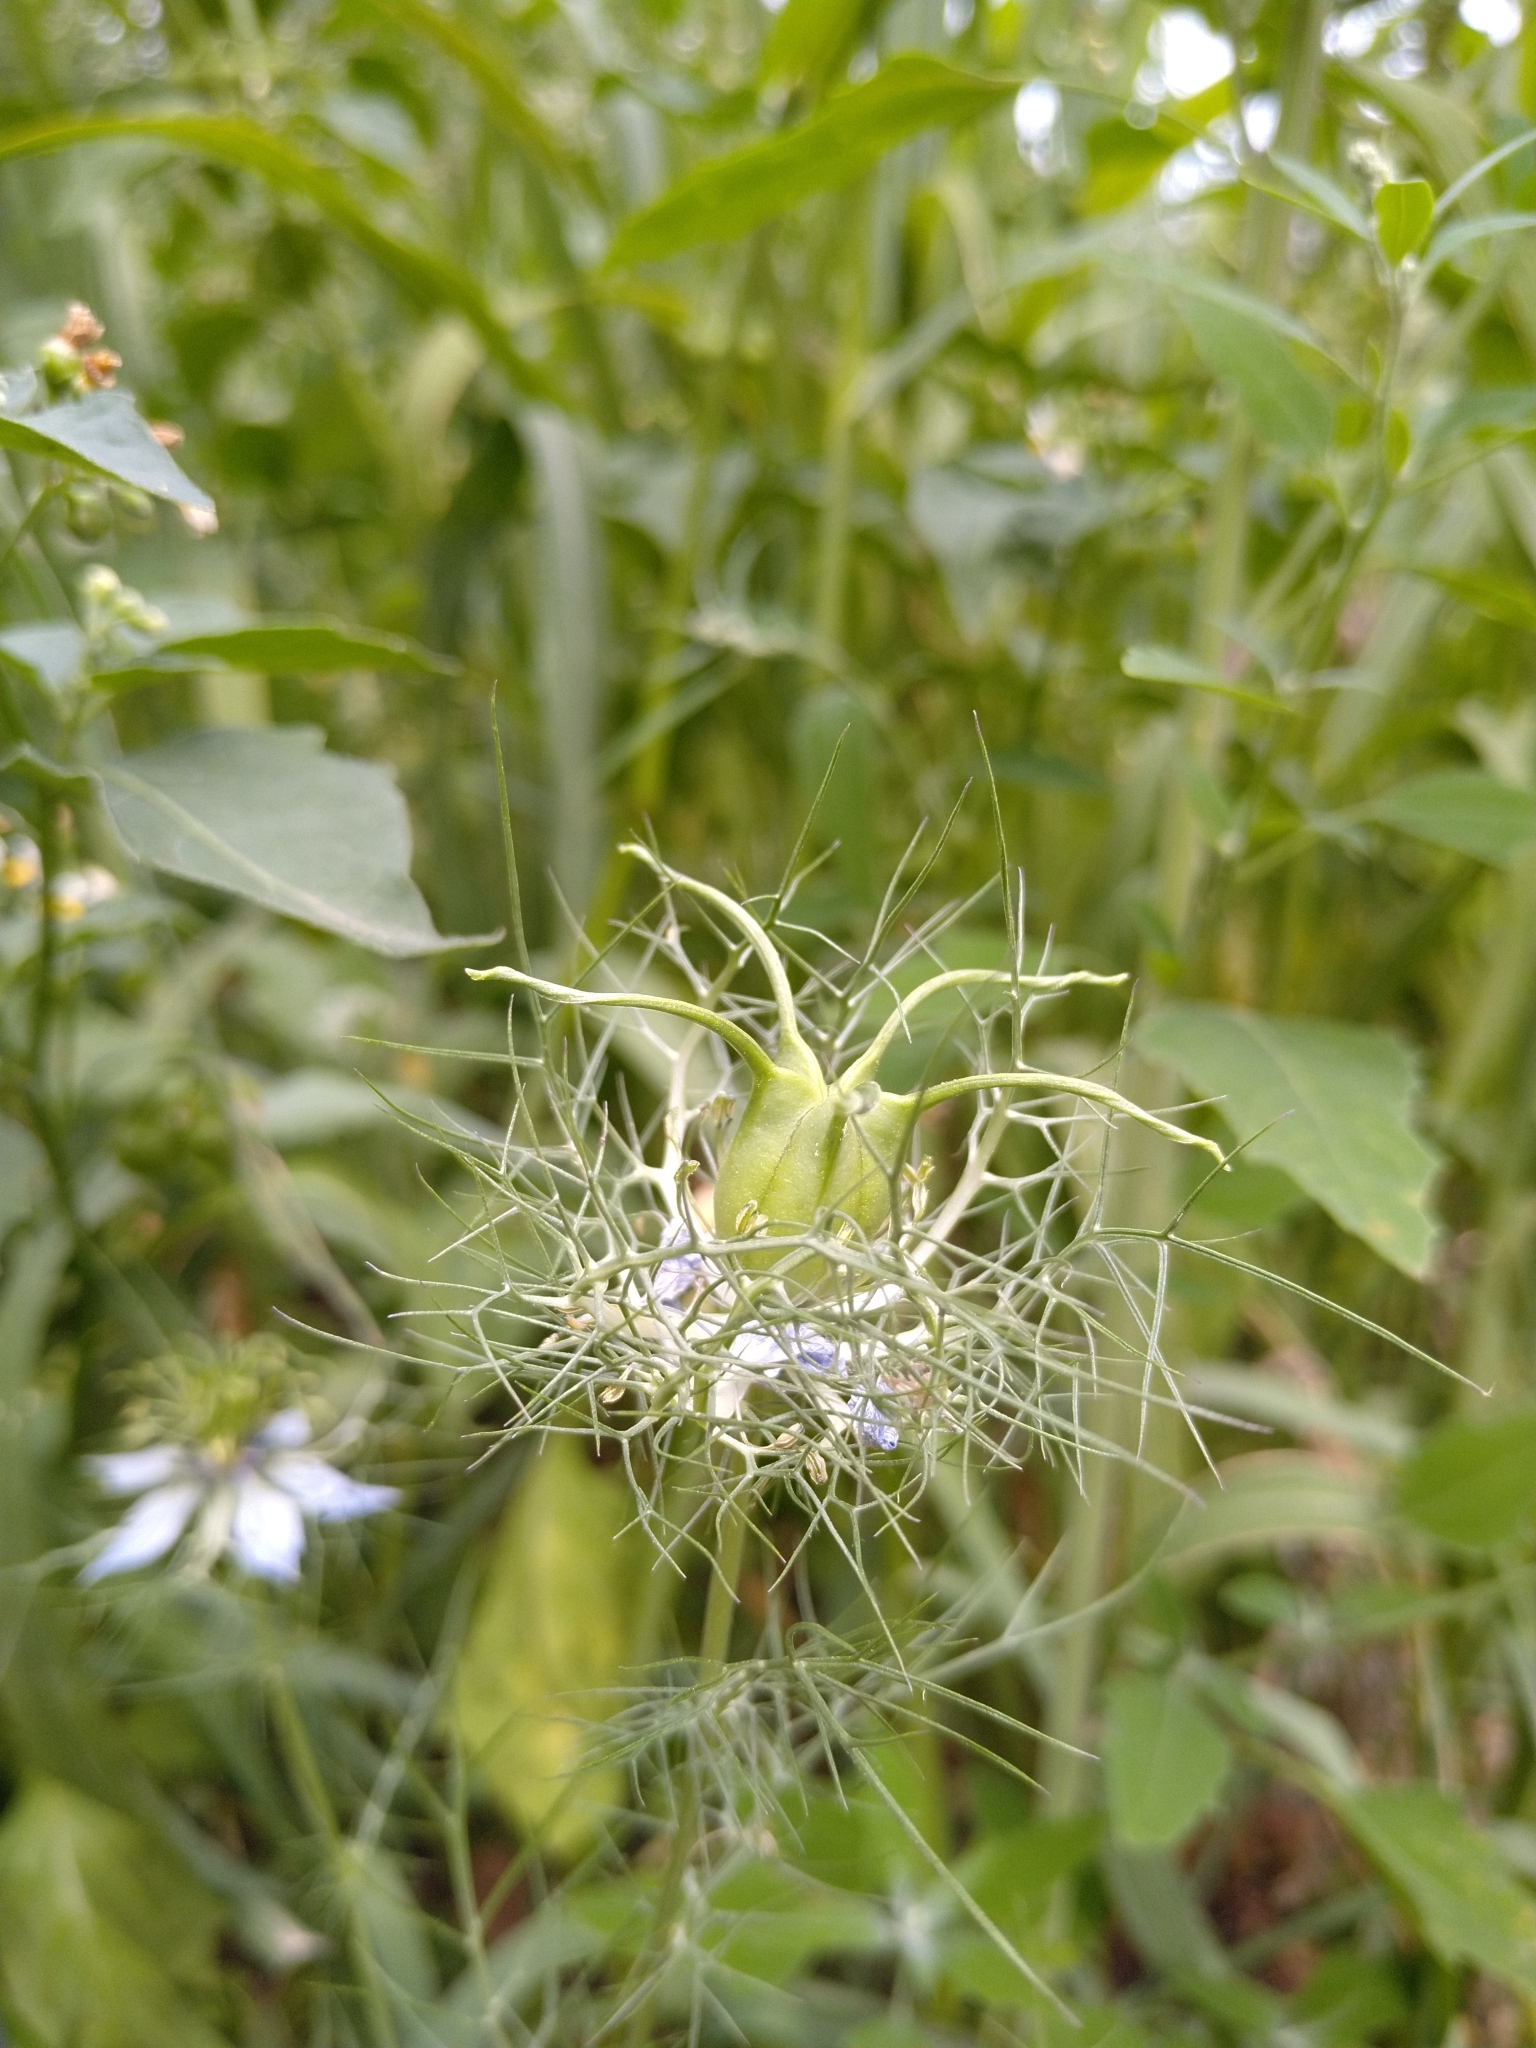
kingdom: Plantae
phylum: Tracheophyta
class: Magnoliopsida
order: Ranunculales
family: Ranunculaceae
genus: Nigella
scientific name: Nigella damascena
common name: Love-in-a-mist
